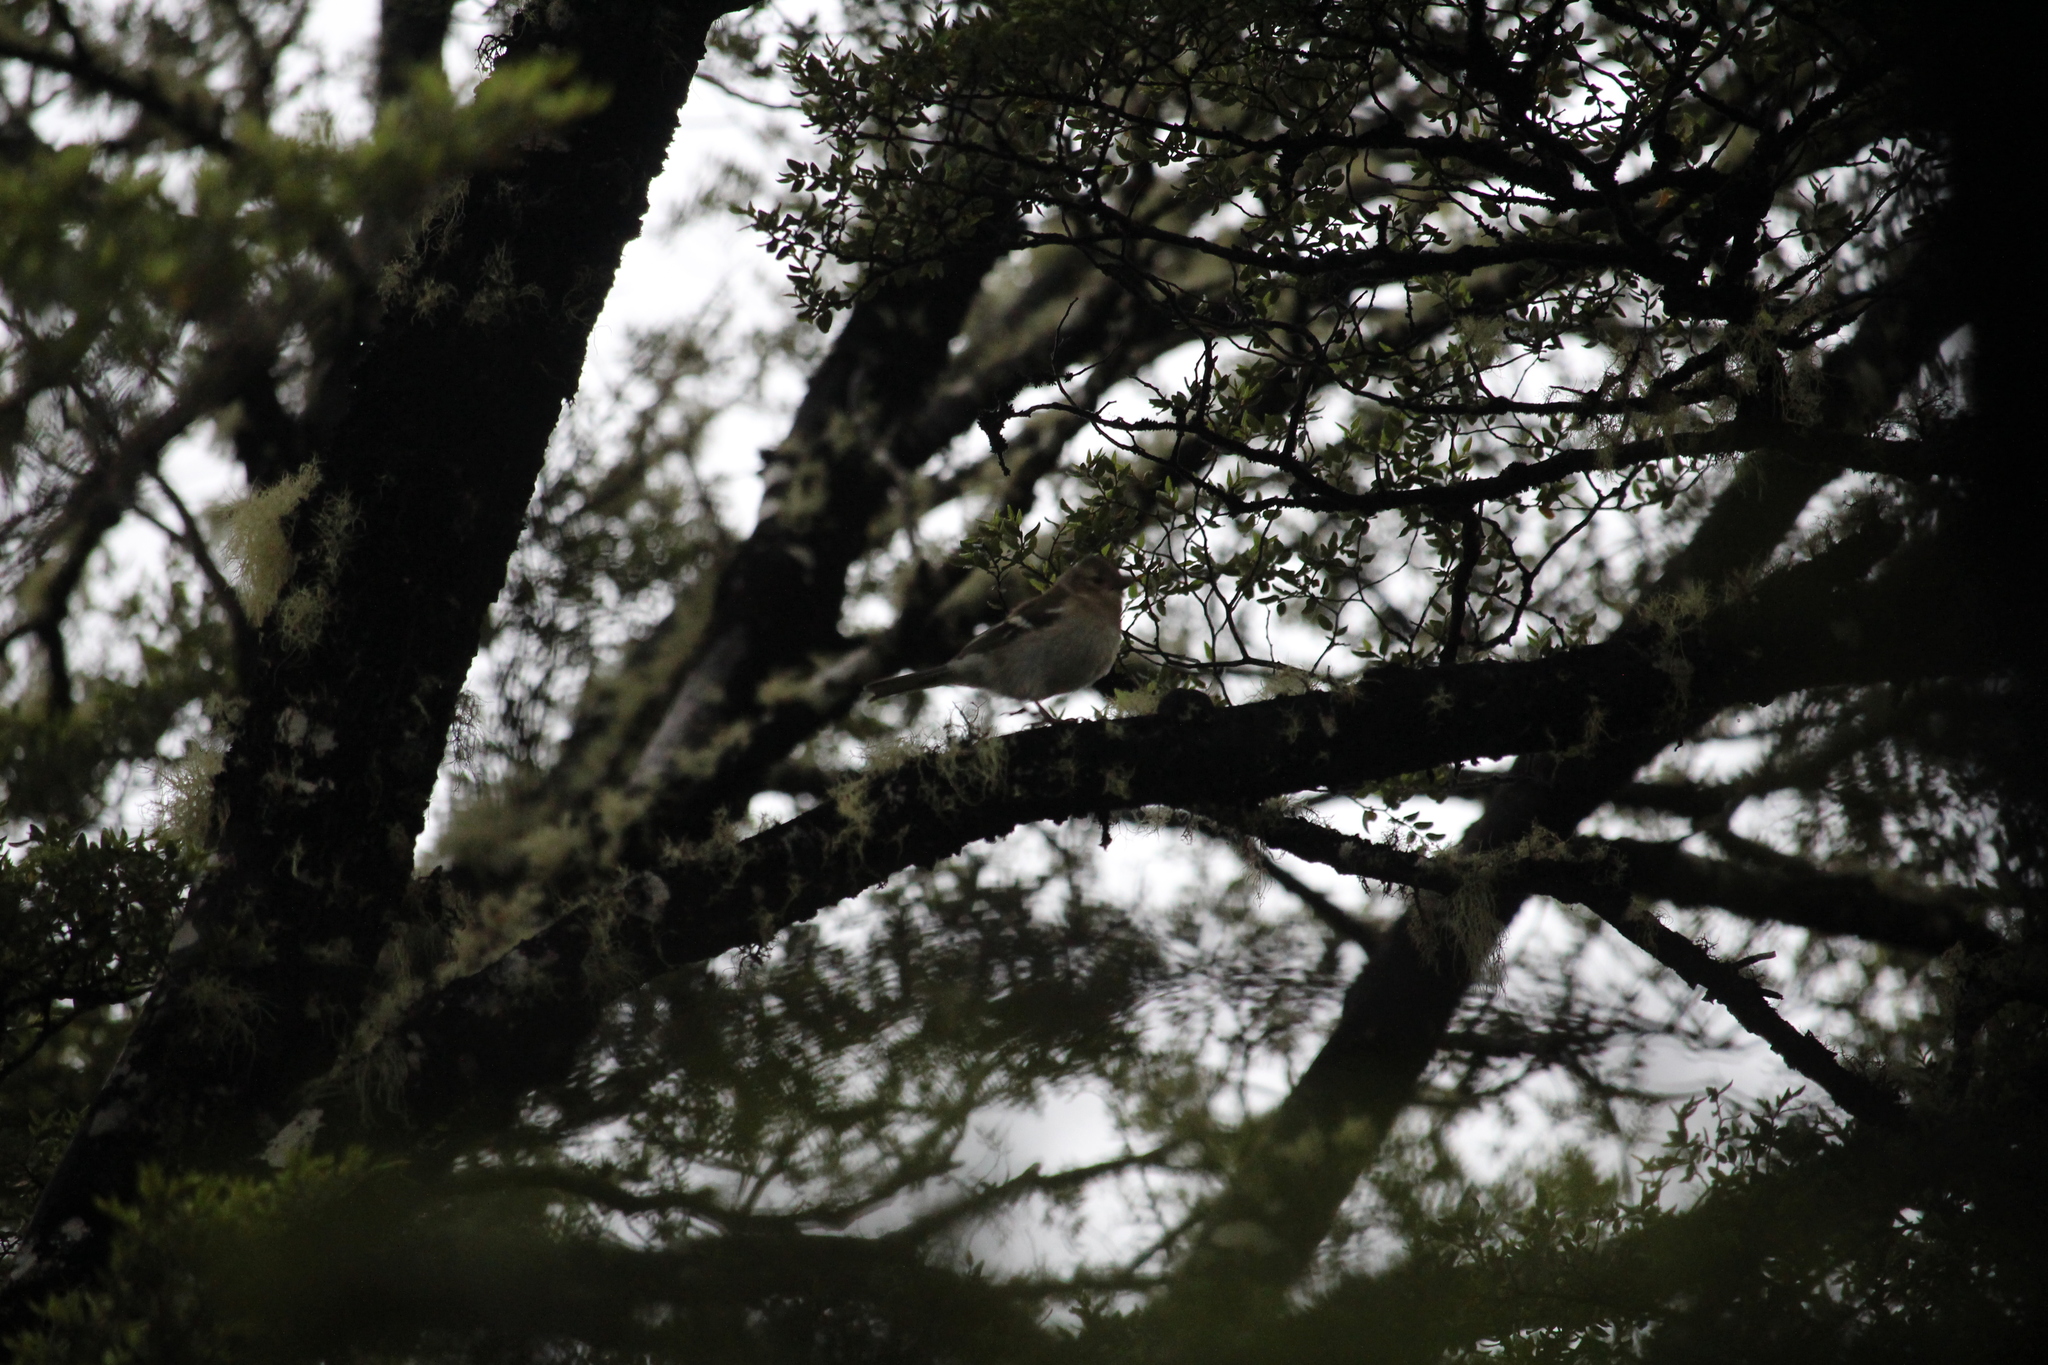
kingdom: Animalia
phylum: Chordata
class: Aves
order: Passeriformes
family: Fringillidae
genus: Fringilla
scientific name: Fringilla coelebs
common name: Common chaffinch
